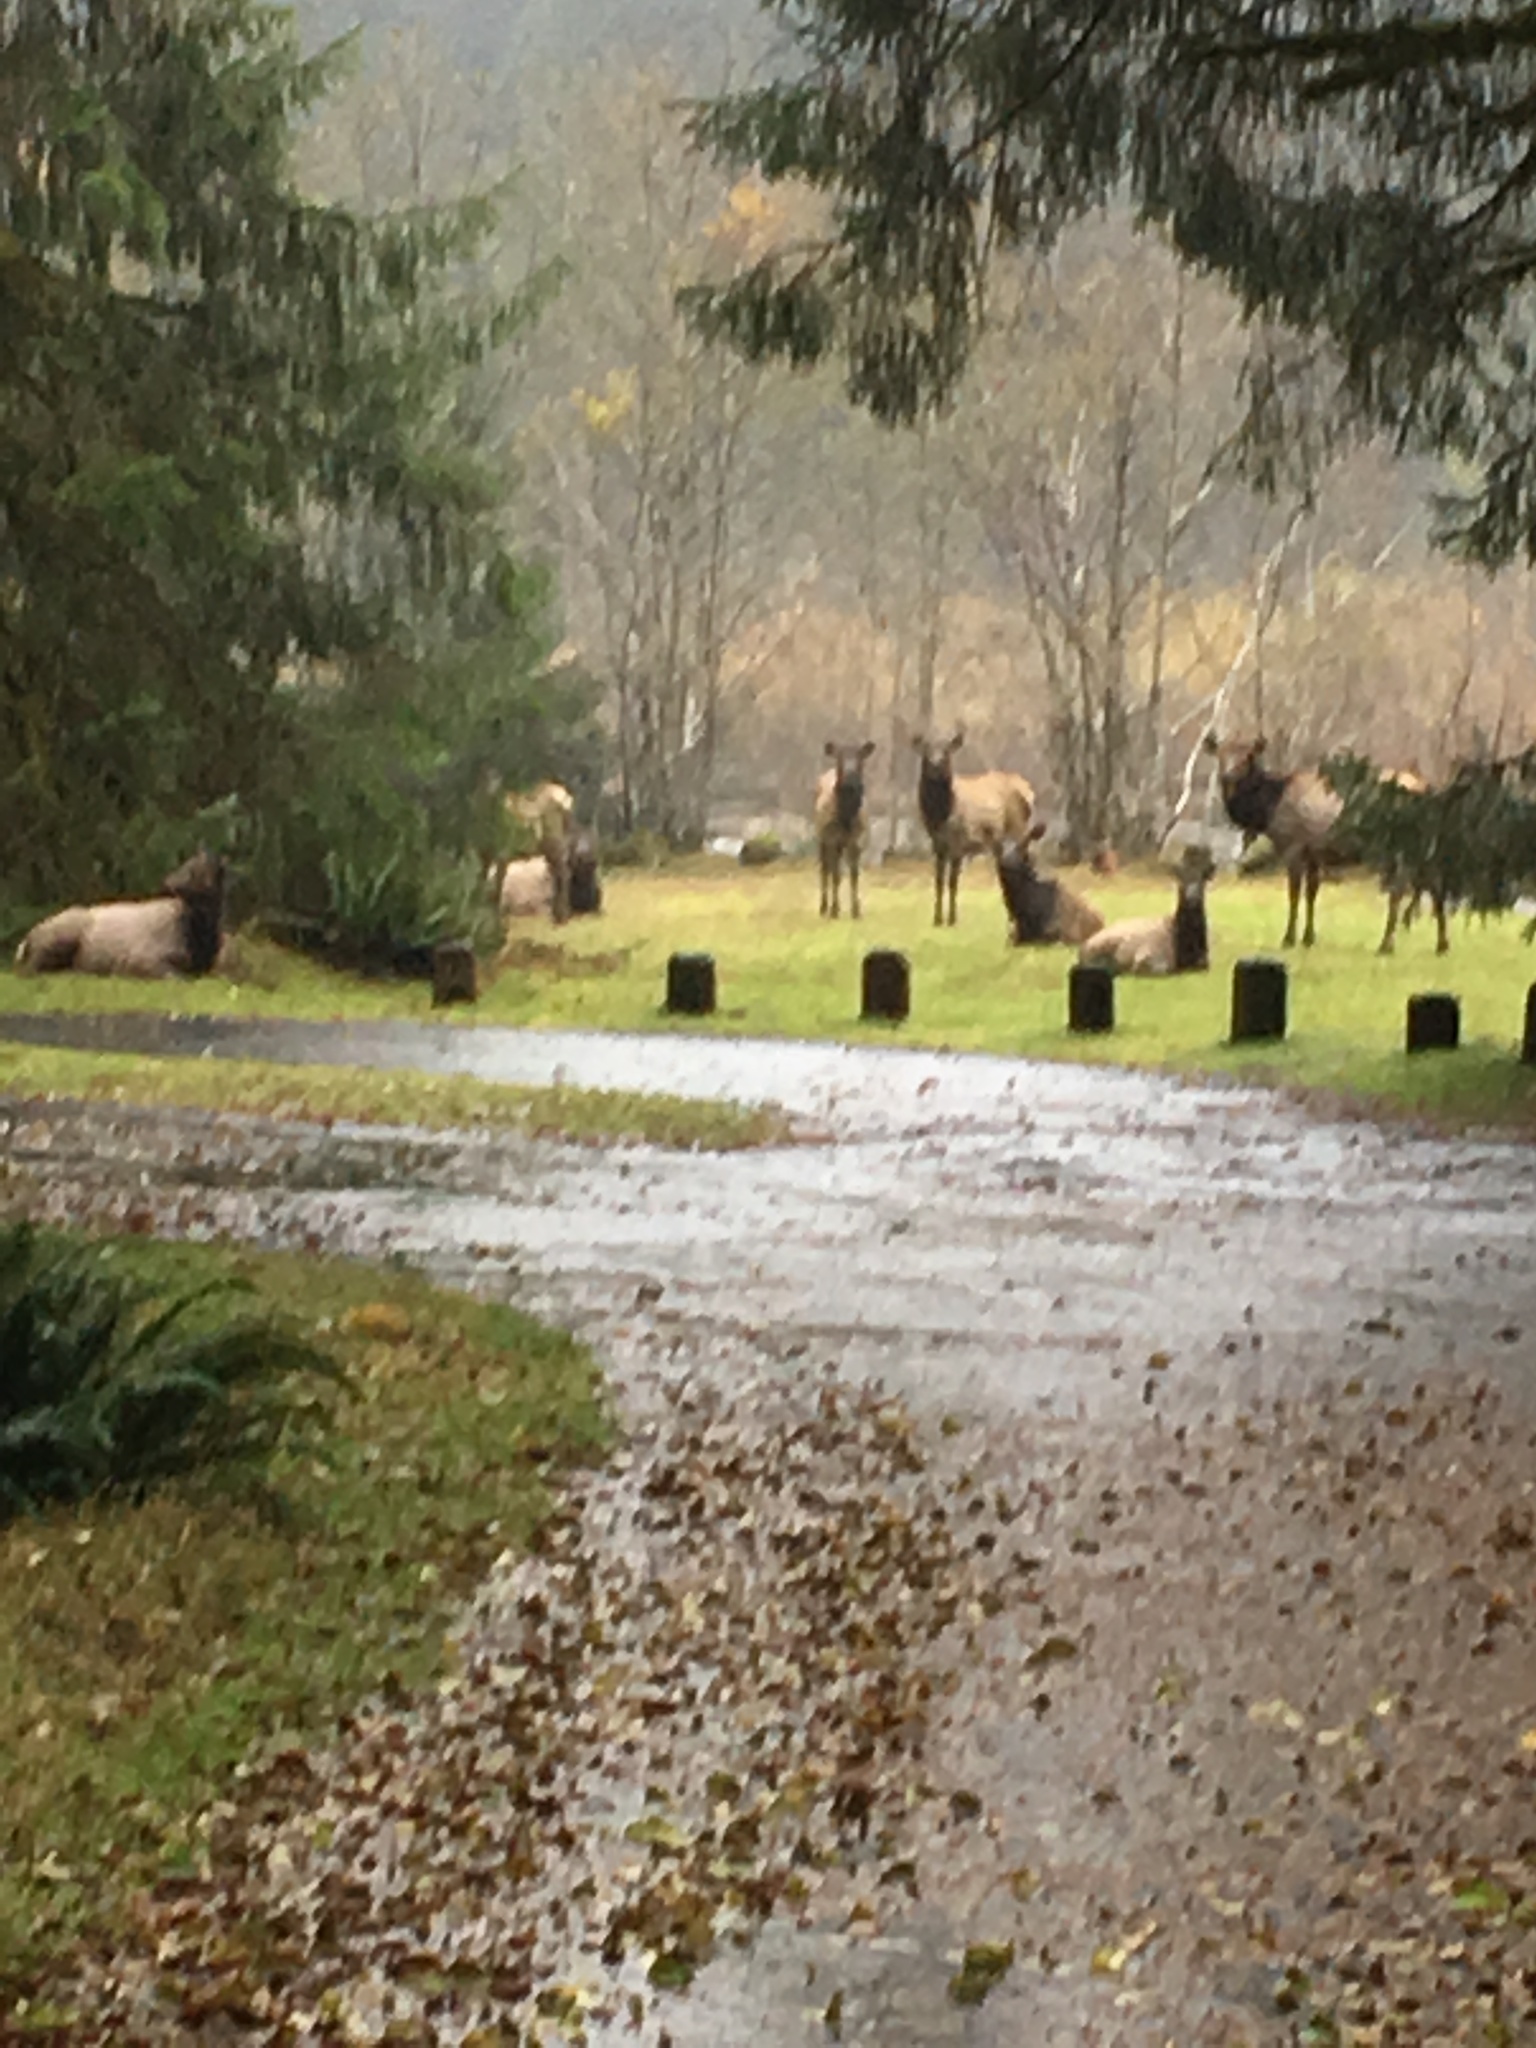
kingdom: Animalia
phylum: Chordata
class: Mammalia
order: Artiodactyla
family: Cervidae
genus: Cervus
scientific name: Cervus elaphus
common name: Red deer
